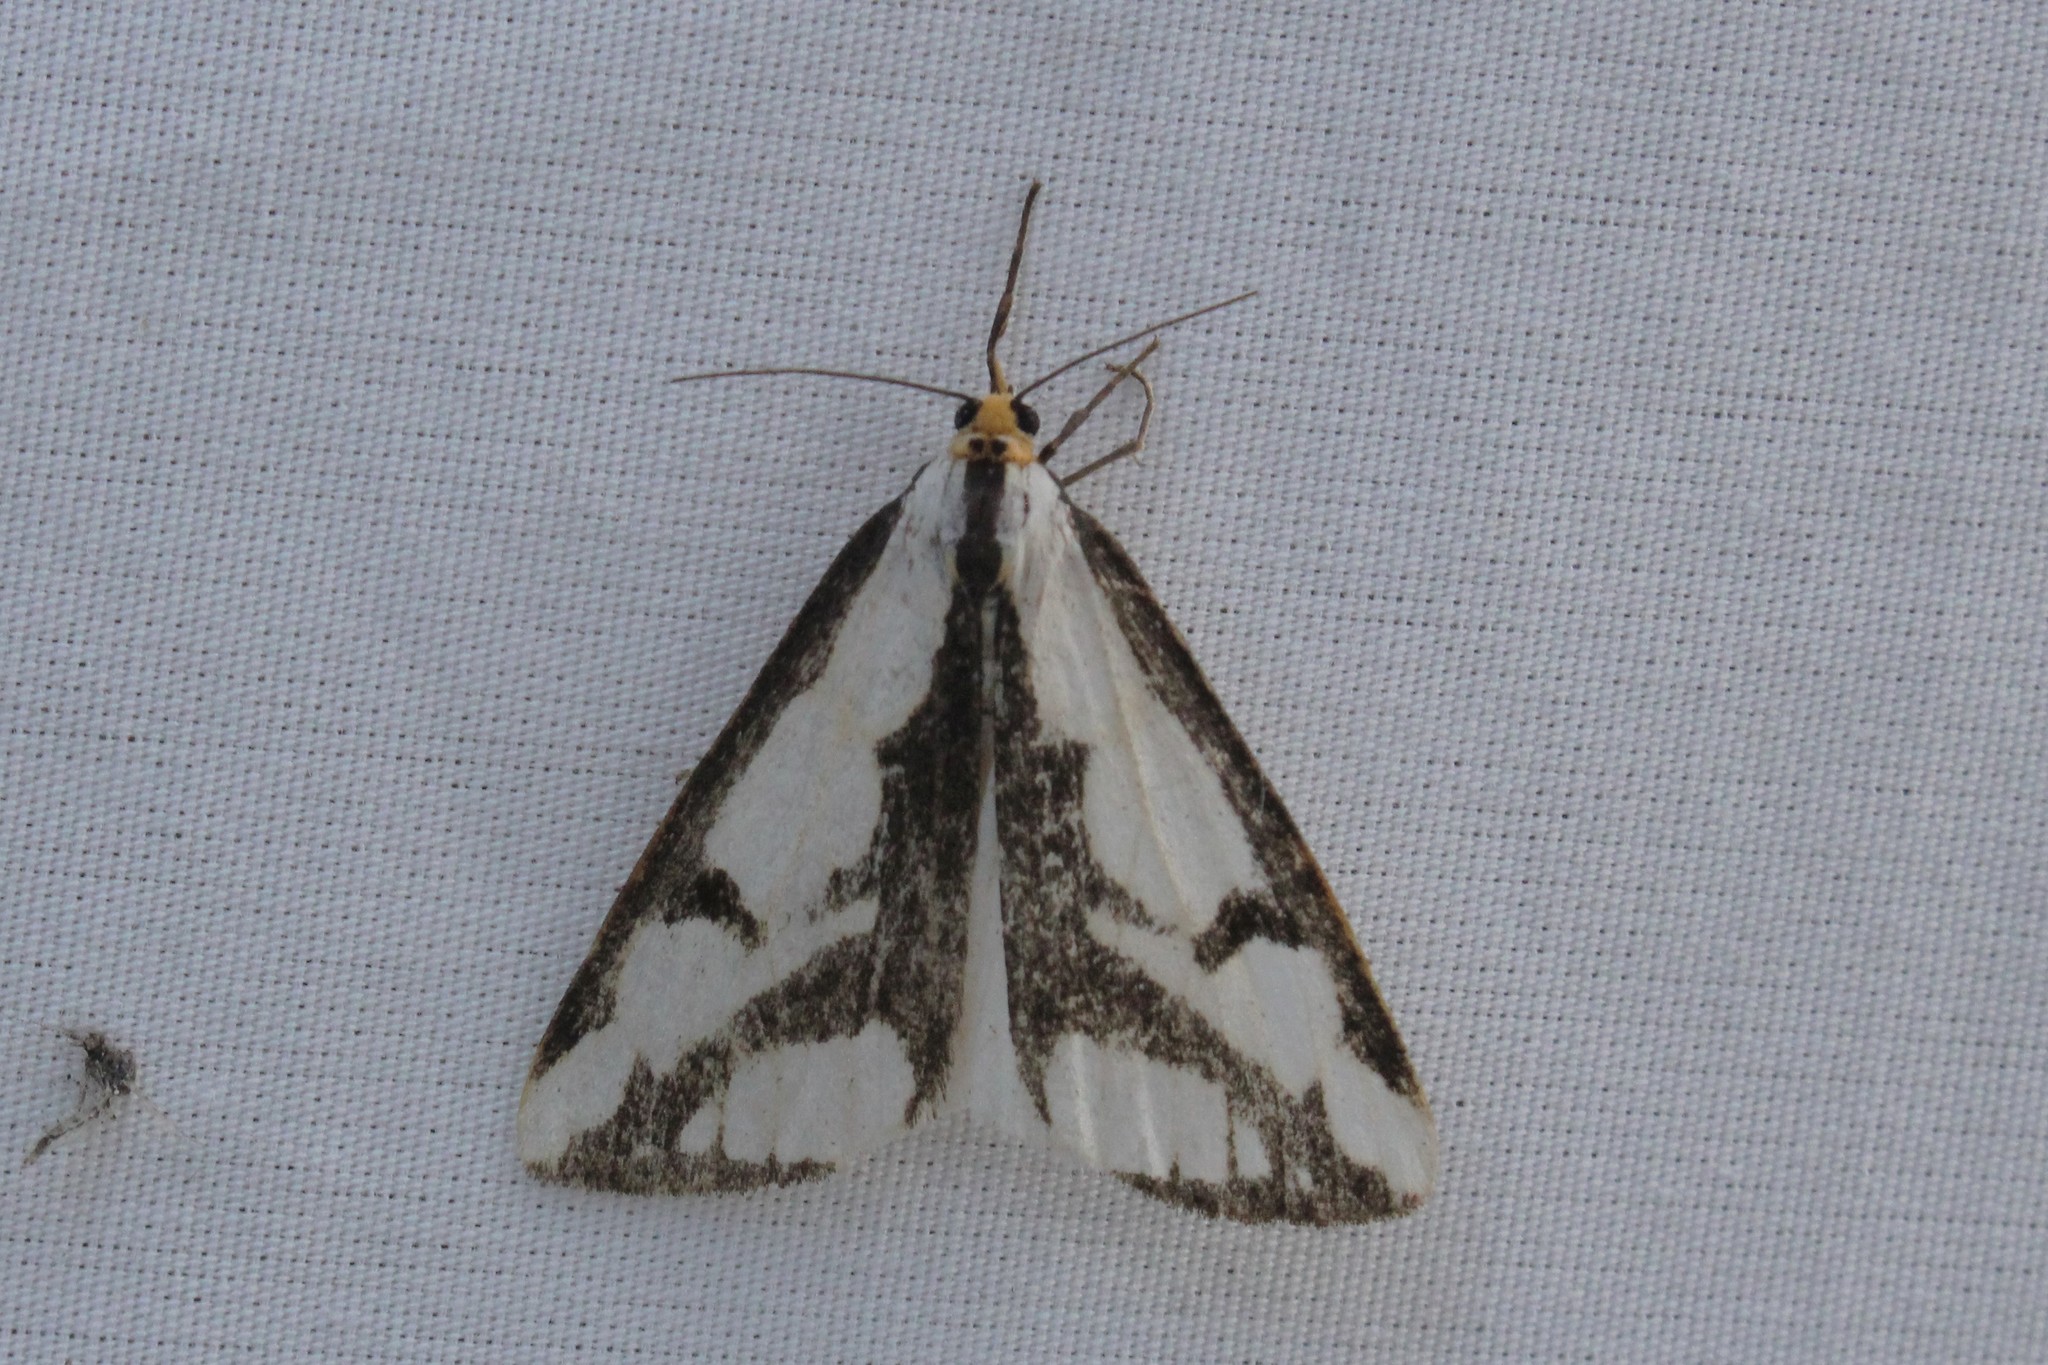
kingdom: Animalia
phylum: Arthropoda
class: Insecta
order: Lepidoptera
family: Erebidae
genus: Haploa
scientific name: Haploa lecontei
